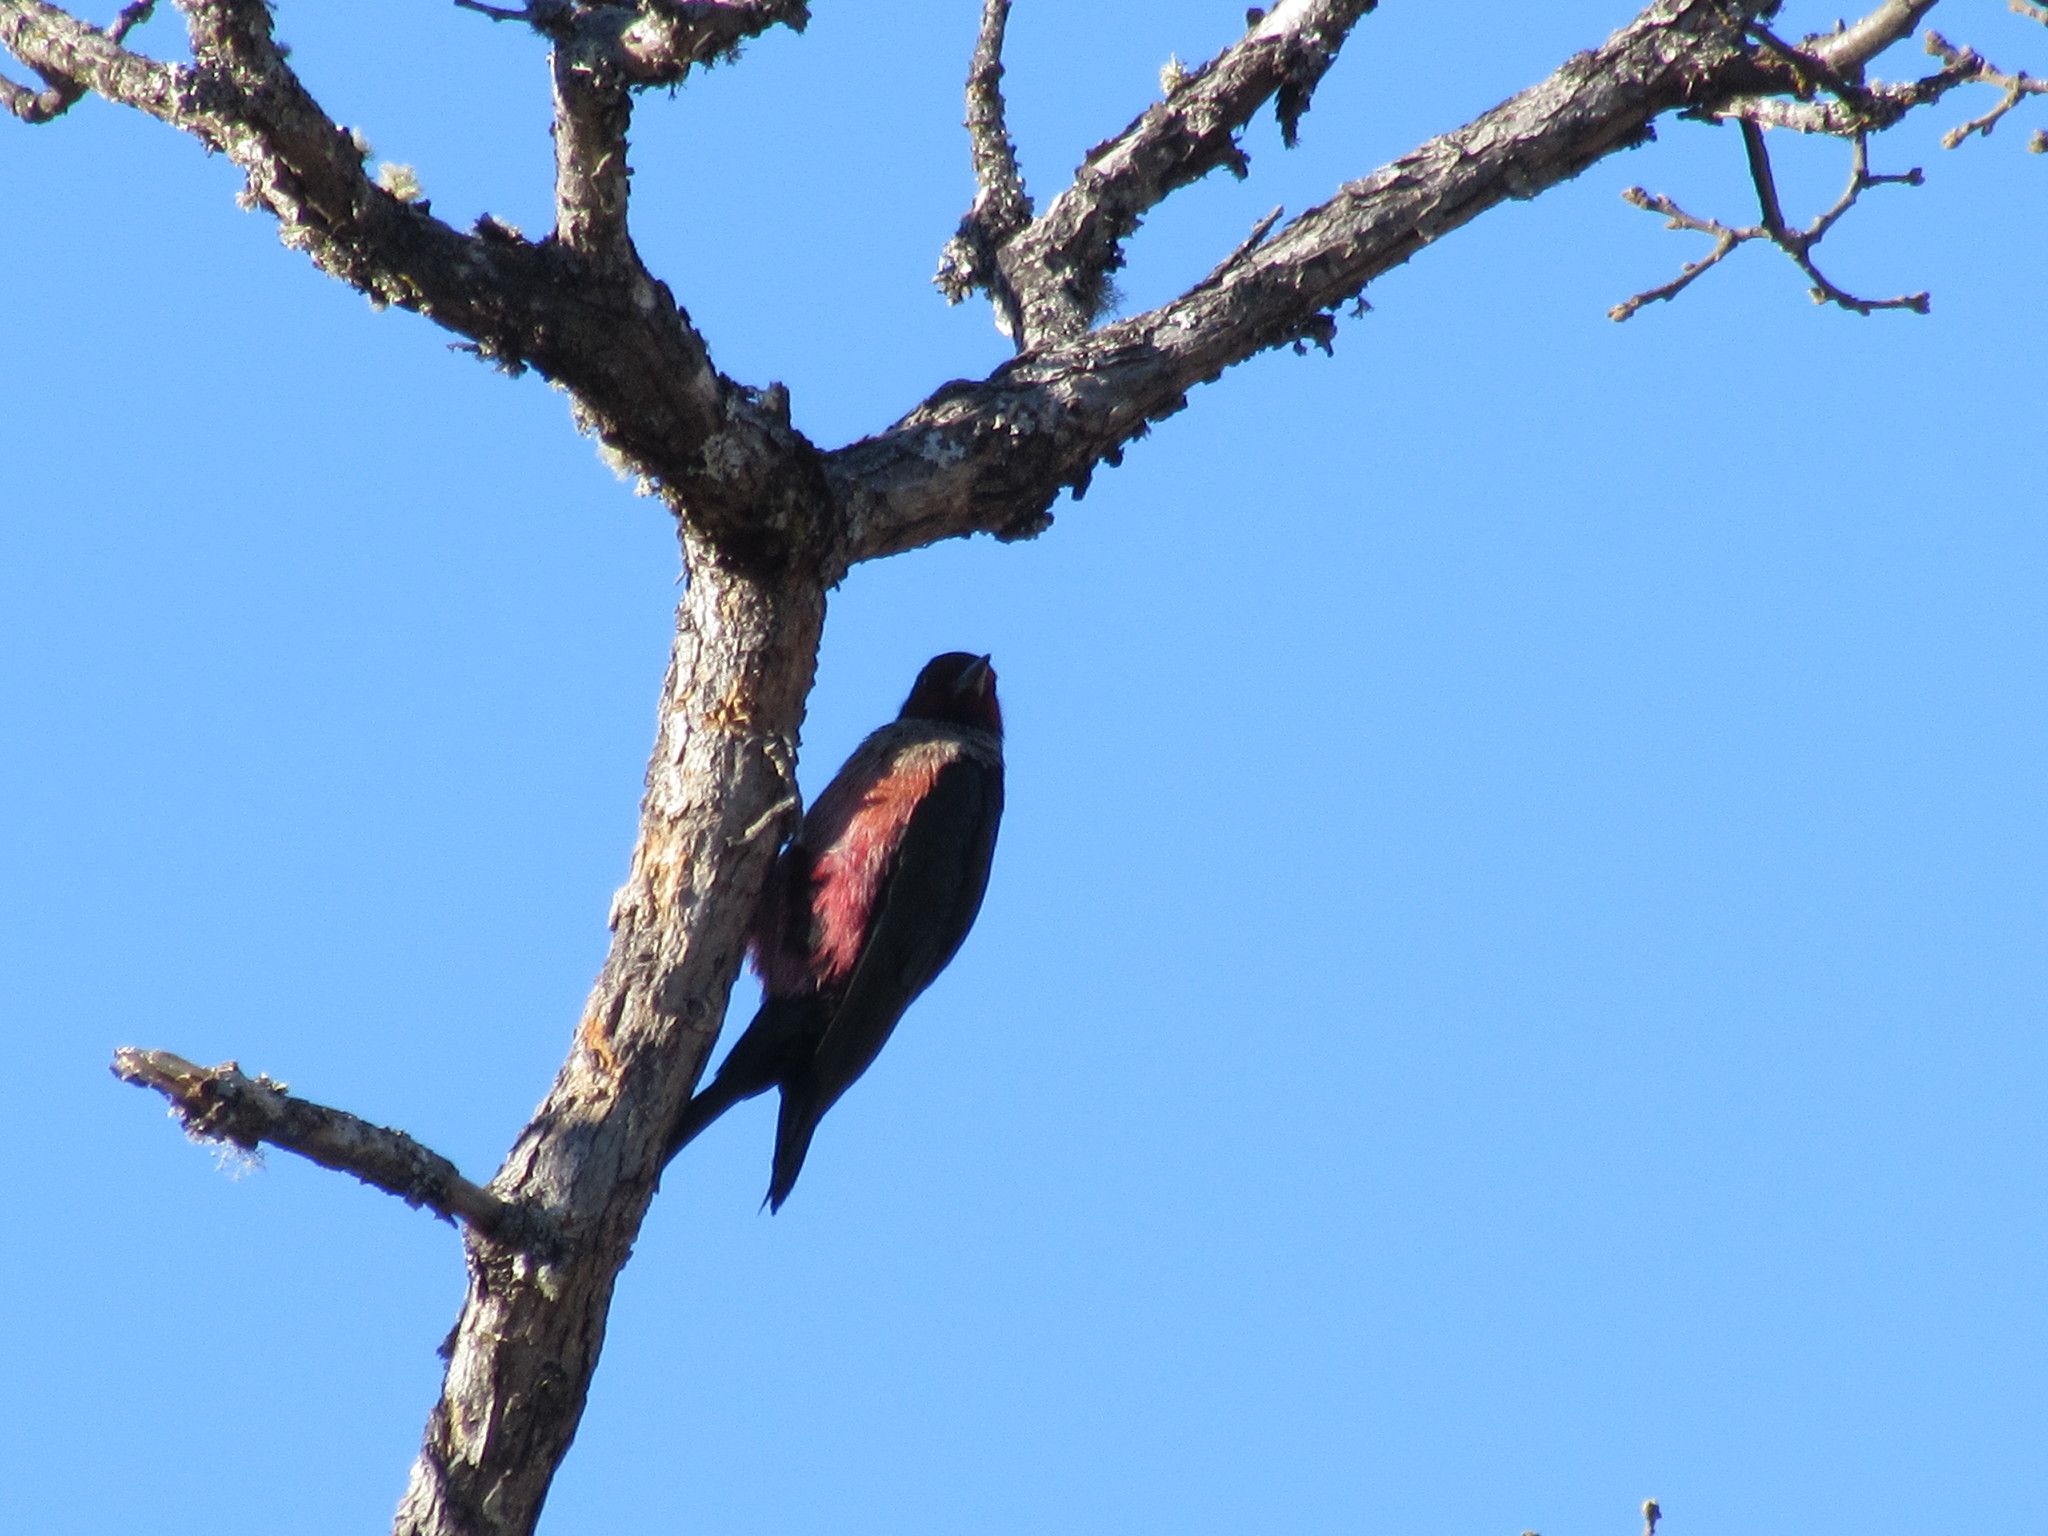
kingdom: Animalia
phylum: Chordata
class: Aves
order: Piciformes
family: Picidae
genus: Melanerpes
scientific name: Melanerpes lewis
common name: Lewis's woodpecker
